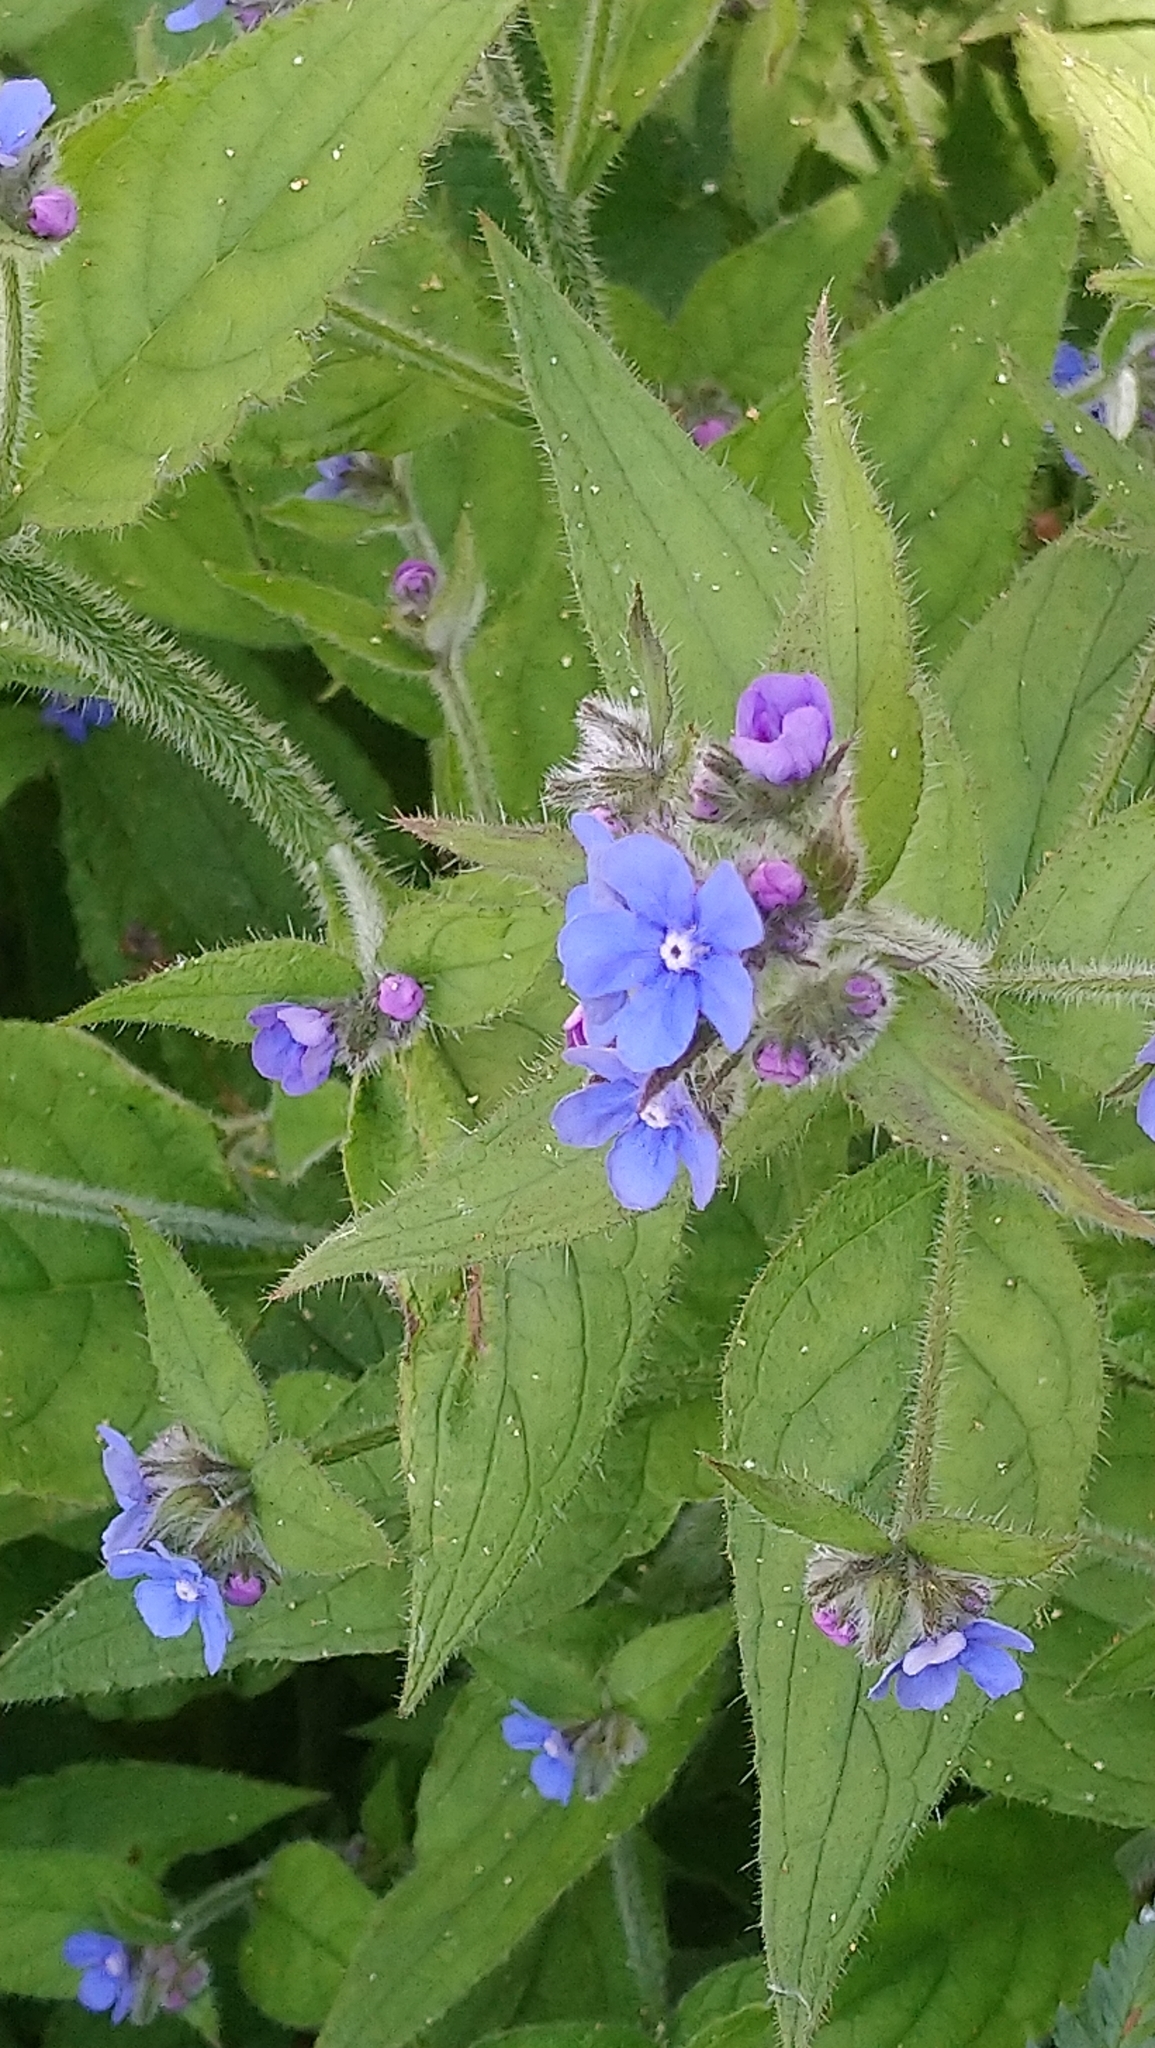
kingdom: Plantae
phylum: Tracheophyta
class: Magnoliopsida
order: Boraginales
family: Boraginaceae
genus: Pentaglottis
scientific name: Pentaglottis sempervirens
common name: Green alkanet
